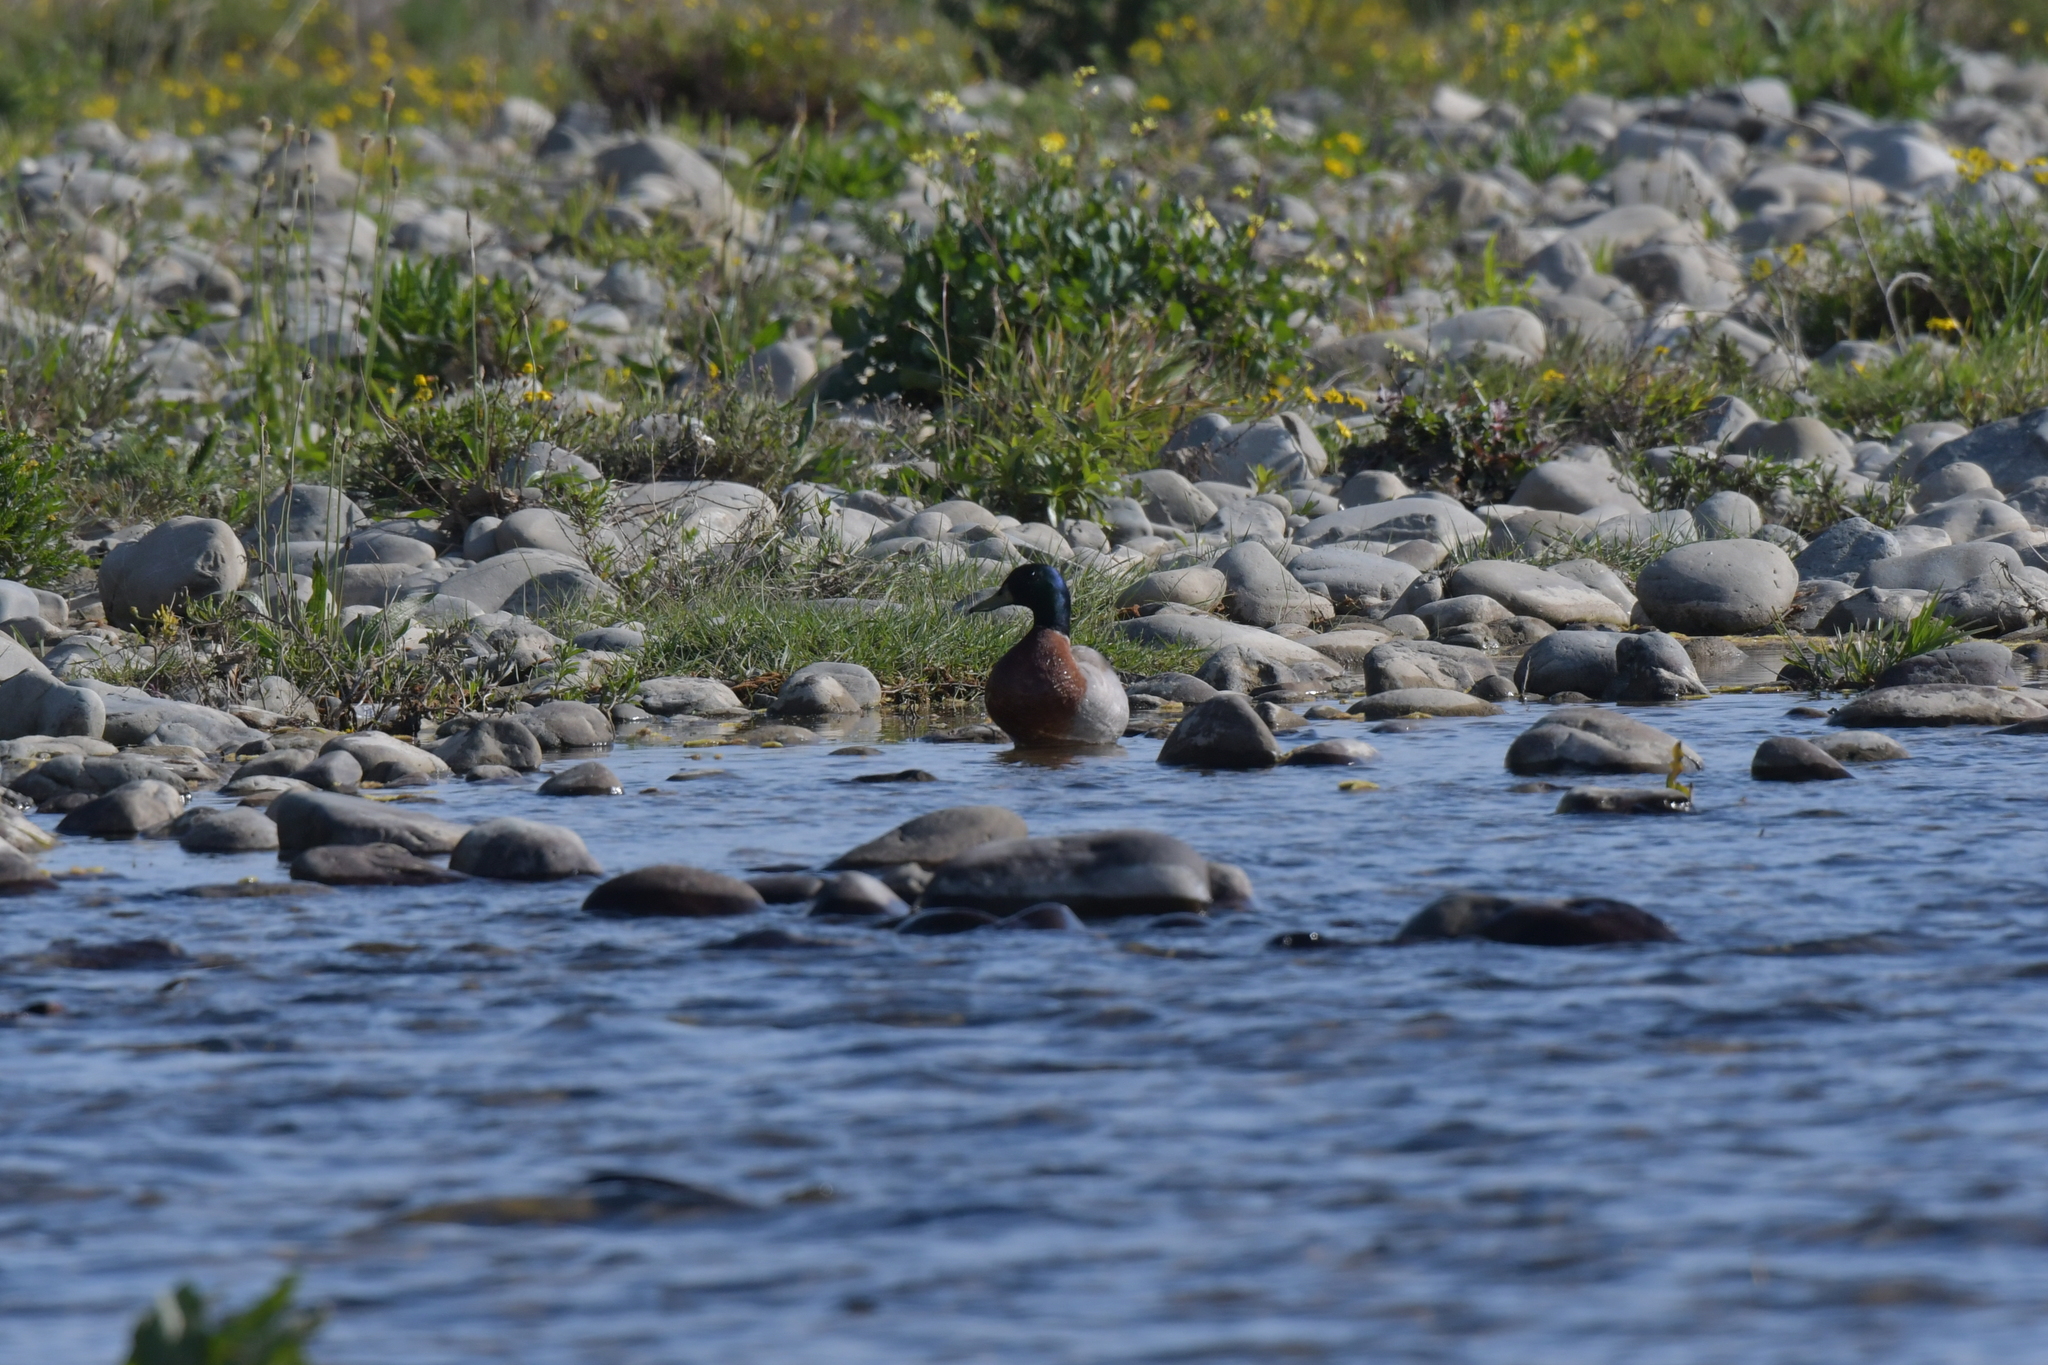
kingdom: Animalia
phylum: Chordata
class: Aves
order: Anseriformes
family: Anatidae
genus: Anas
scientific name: Anas platyrhynchos
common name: Mallard
